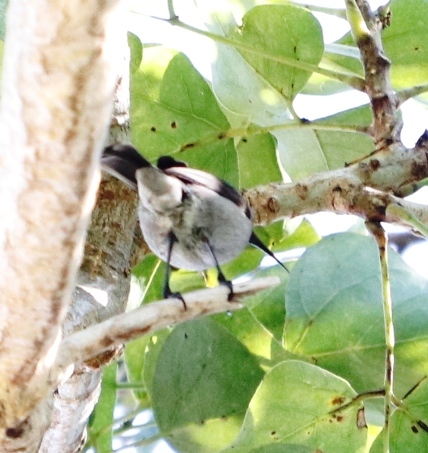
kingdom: Animalia
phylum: Chordata
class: Aves
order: Passeriformes
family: Nectariniidae
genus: Cinnyris
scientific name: Cinnyris chalybeus
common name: Southern double-collared sunbird
